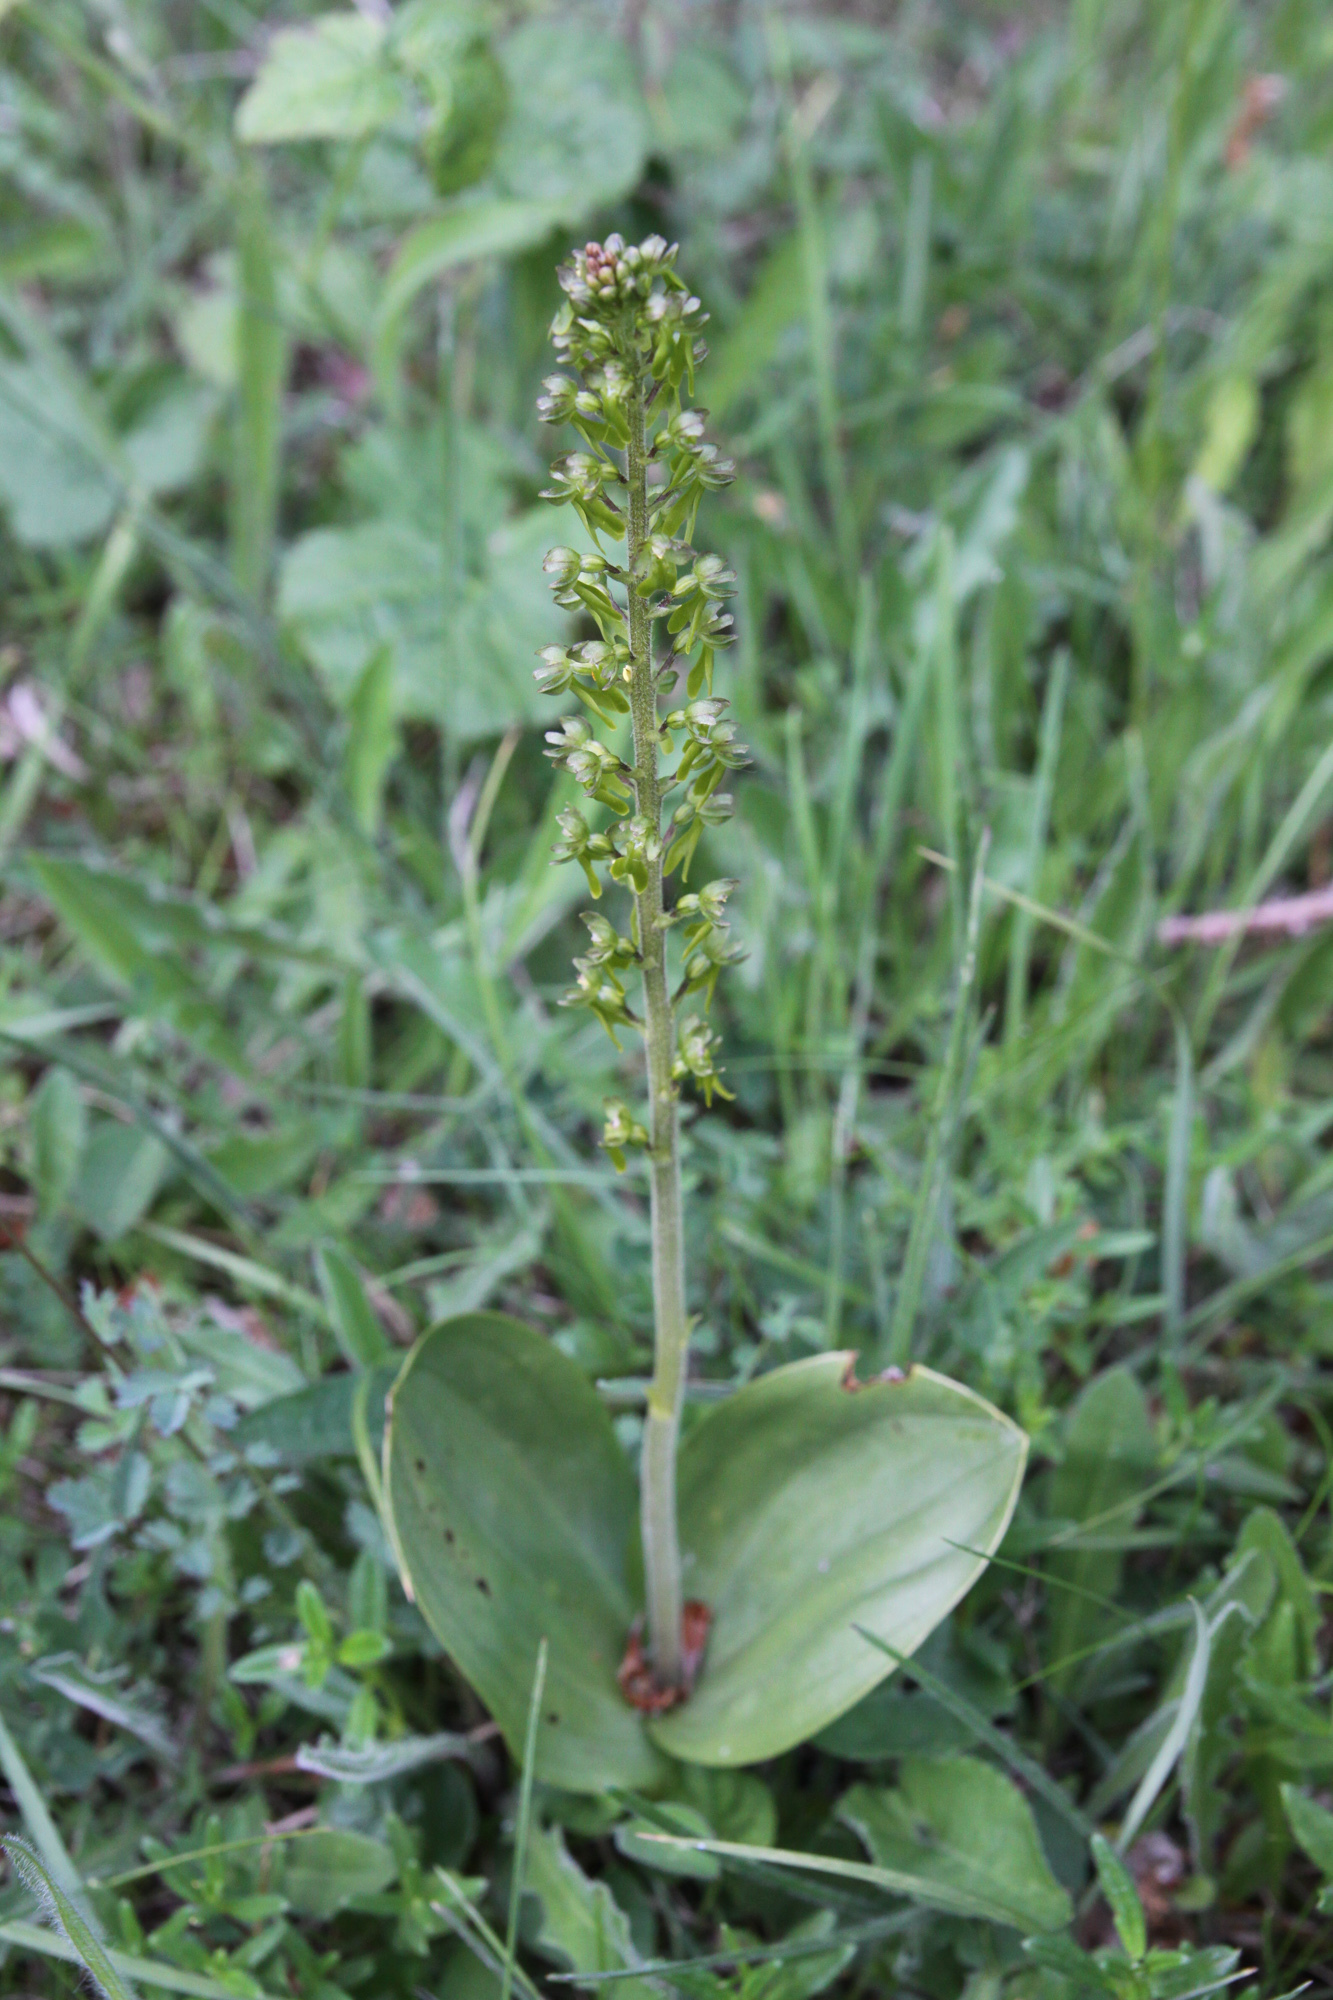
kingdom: Plantae
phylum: Tracheophyta
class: Liliopsida
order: Asparagales
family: Orchidaceae
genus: Neottia
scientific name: Neottia ovata
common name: Common twayblade
